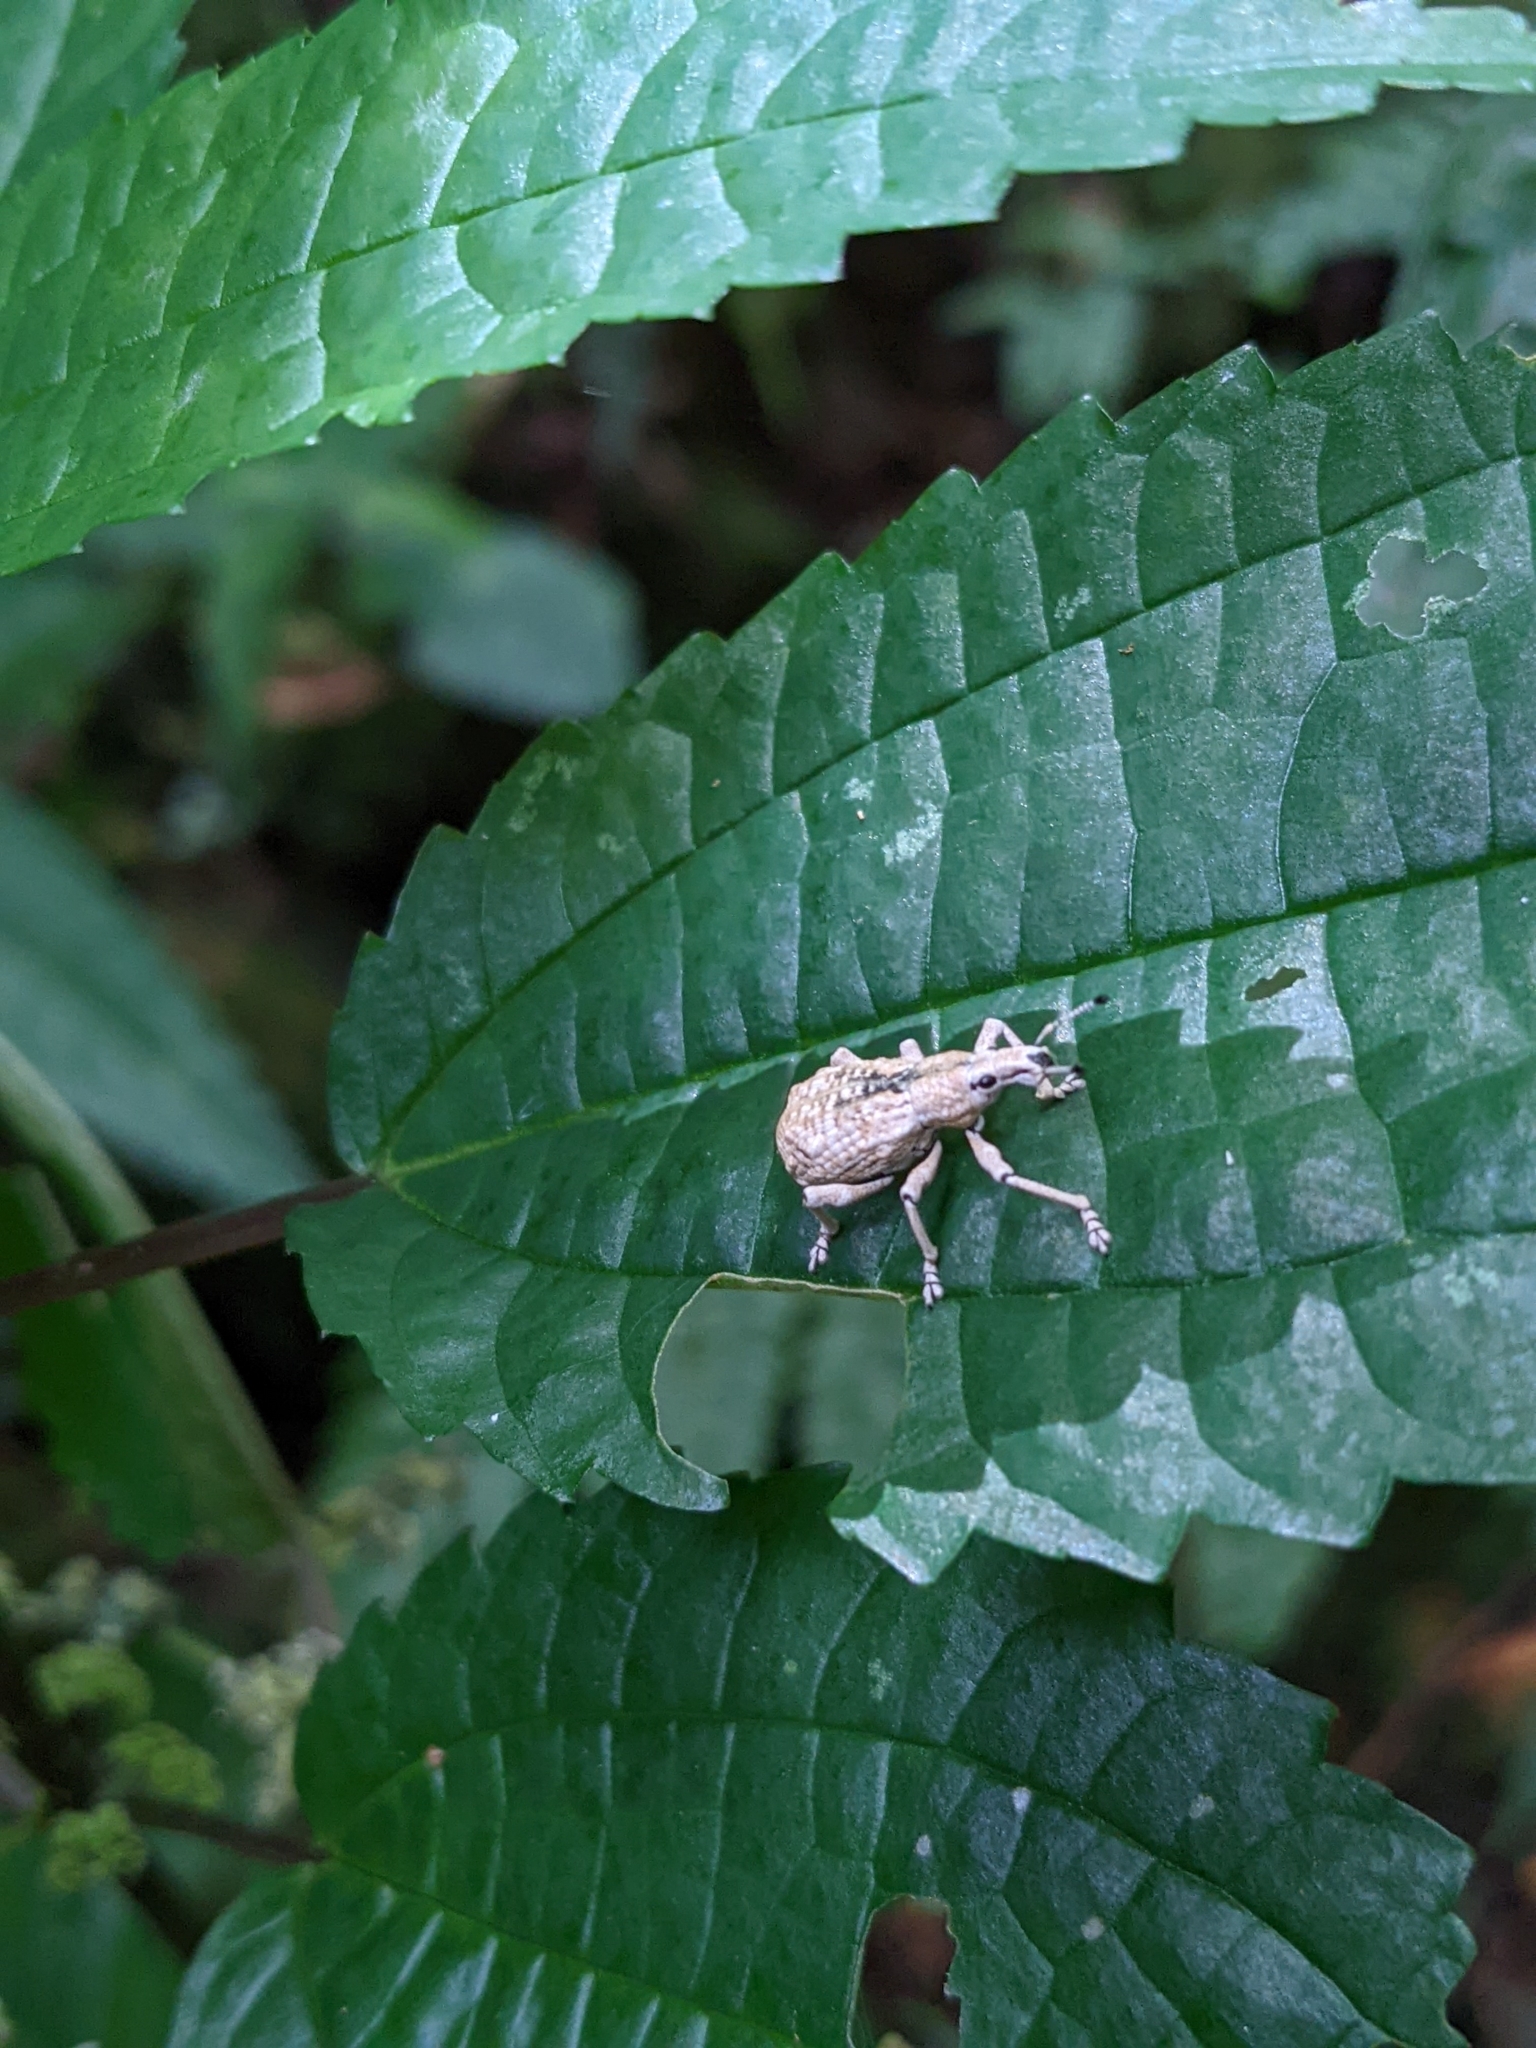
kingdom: Animalia
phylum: Arthropoda
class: Insecta
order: Coleoptera
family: Curculionidae
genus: Dermatoxenus
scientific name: Dermatoxenus caesicollis
